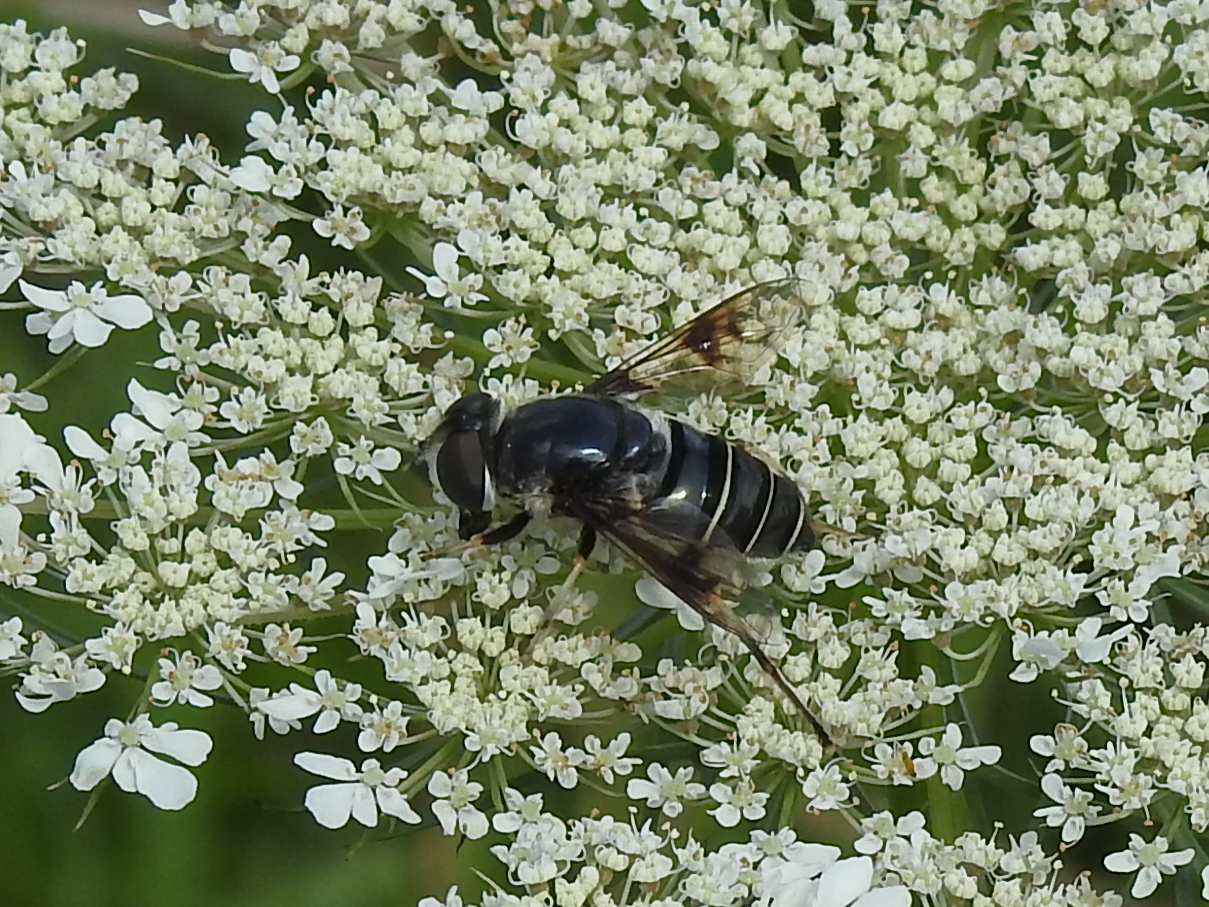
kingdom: Animalia
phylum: Arthropoda
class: Insecta
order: Diptera
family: Syrphidae
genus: Eristalis
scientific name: Eristalis saxorum
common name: Blue-polished drone fly
